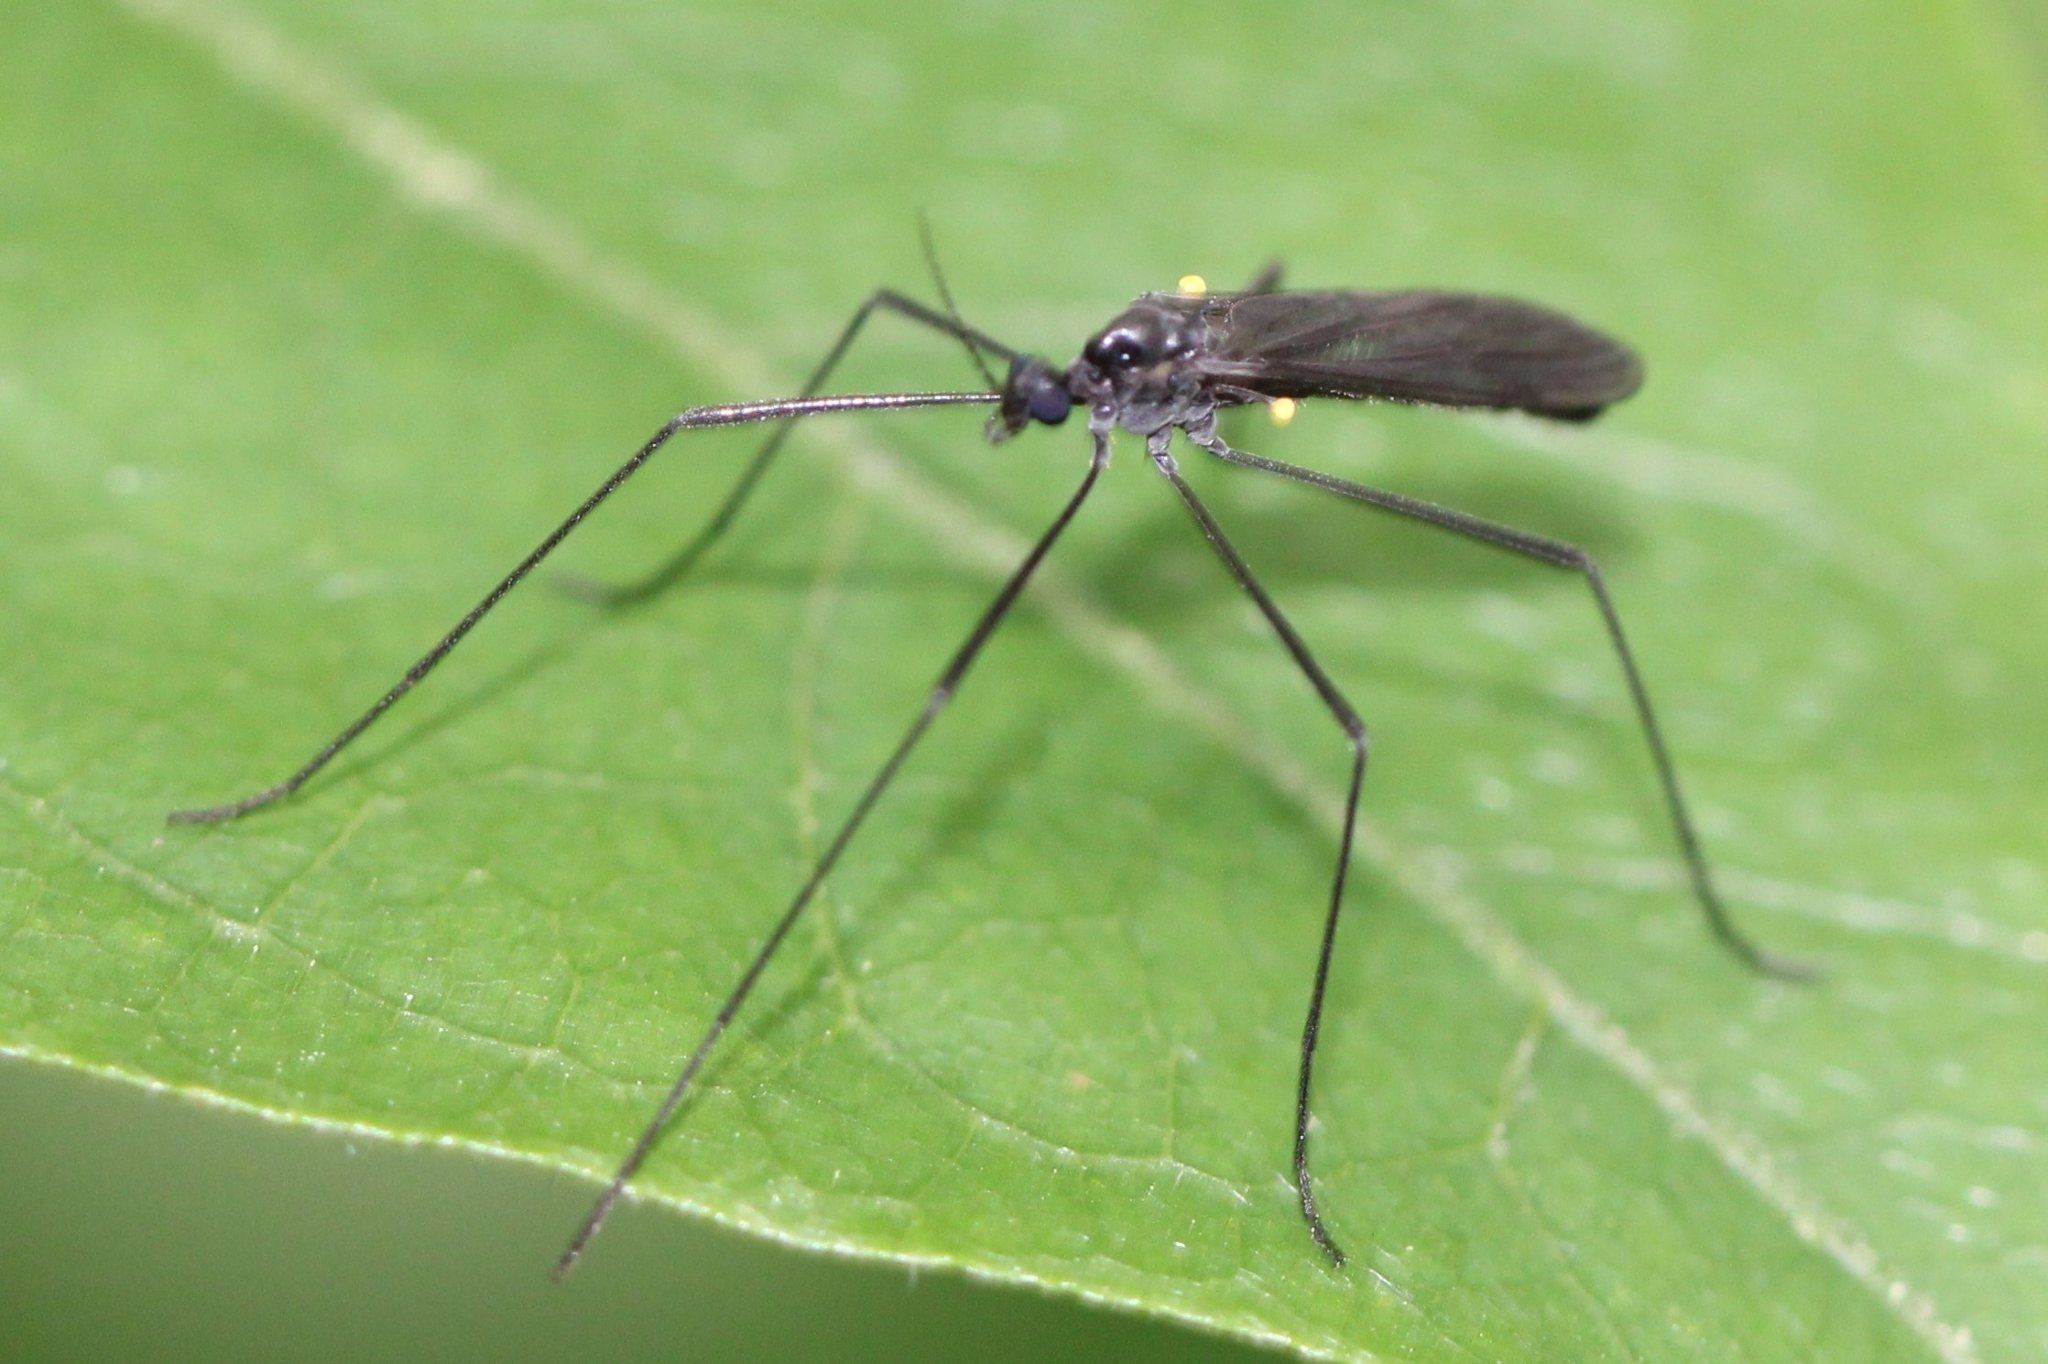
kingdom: Animalia
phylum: Arthropoda
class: Insecta
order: Diptera
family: Limoniidae
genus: Gnophomyia
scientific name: Gnophomyia tristissima
